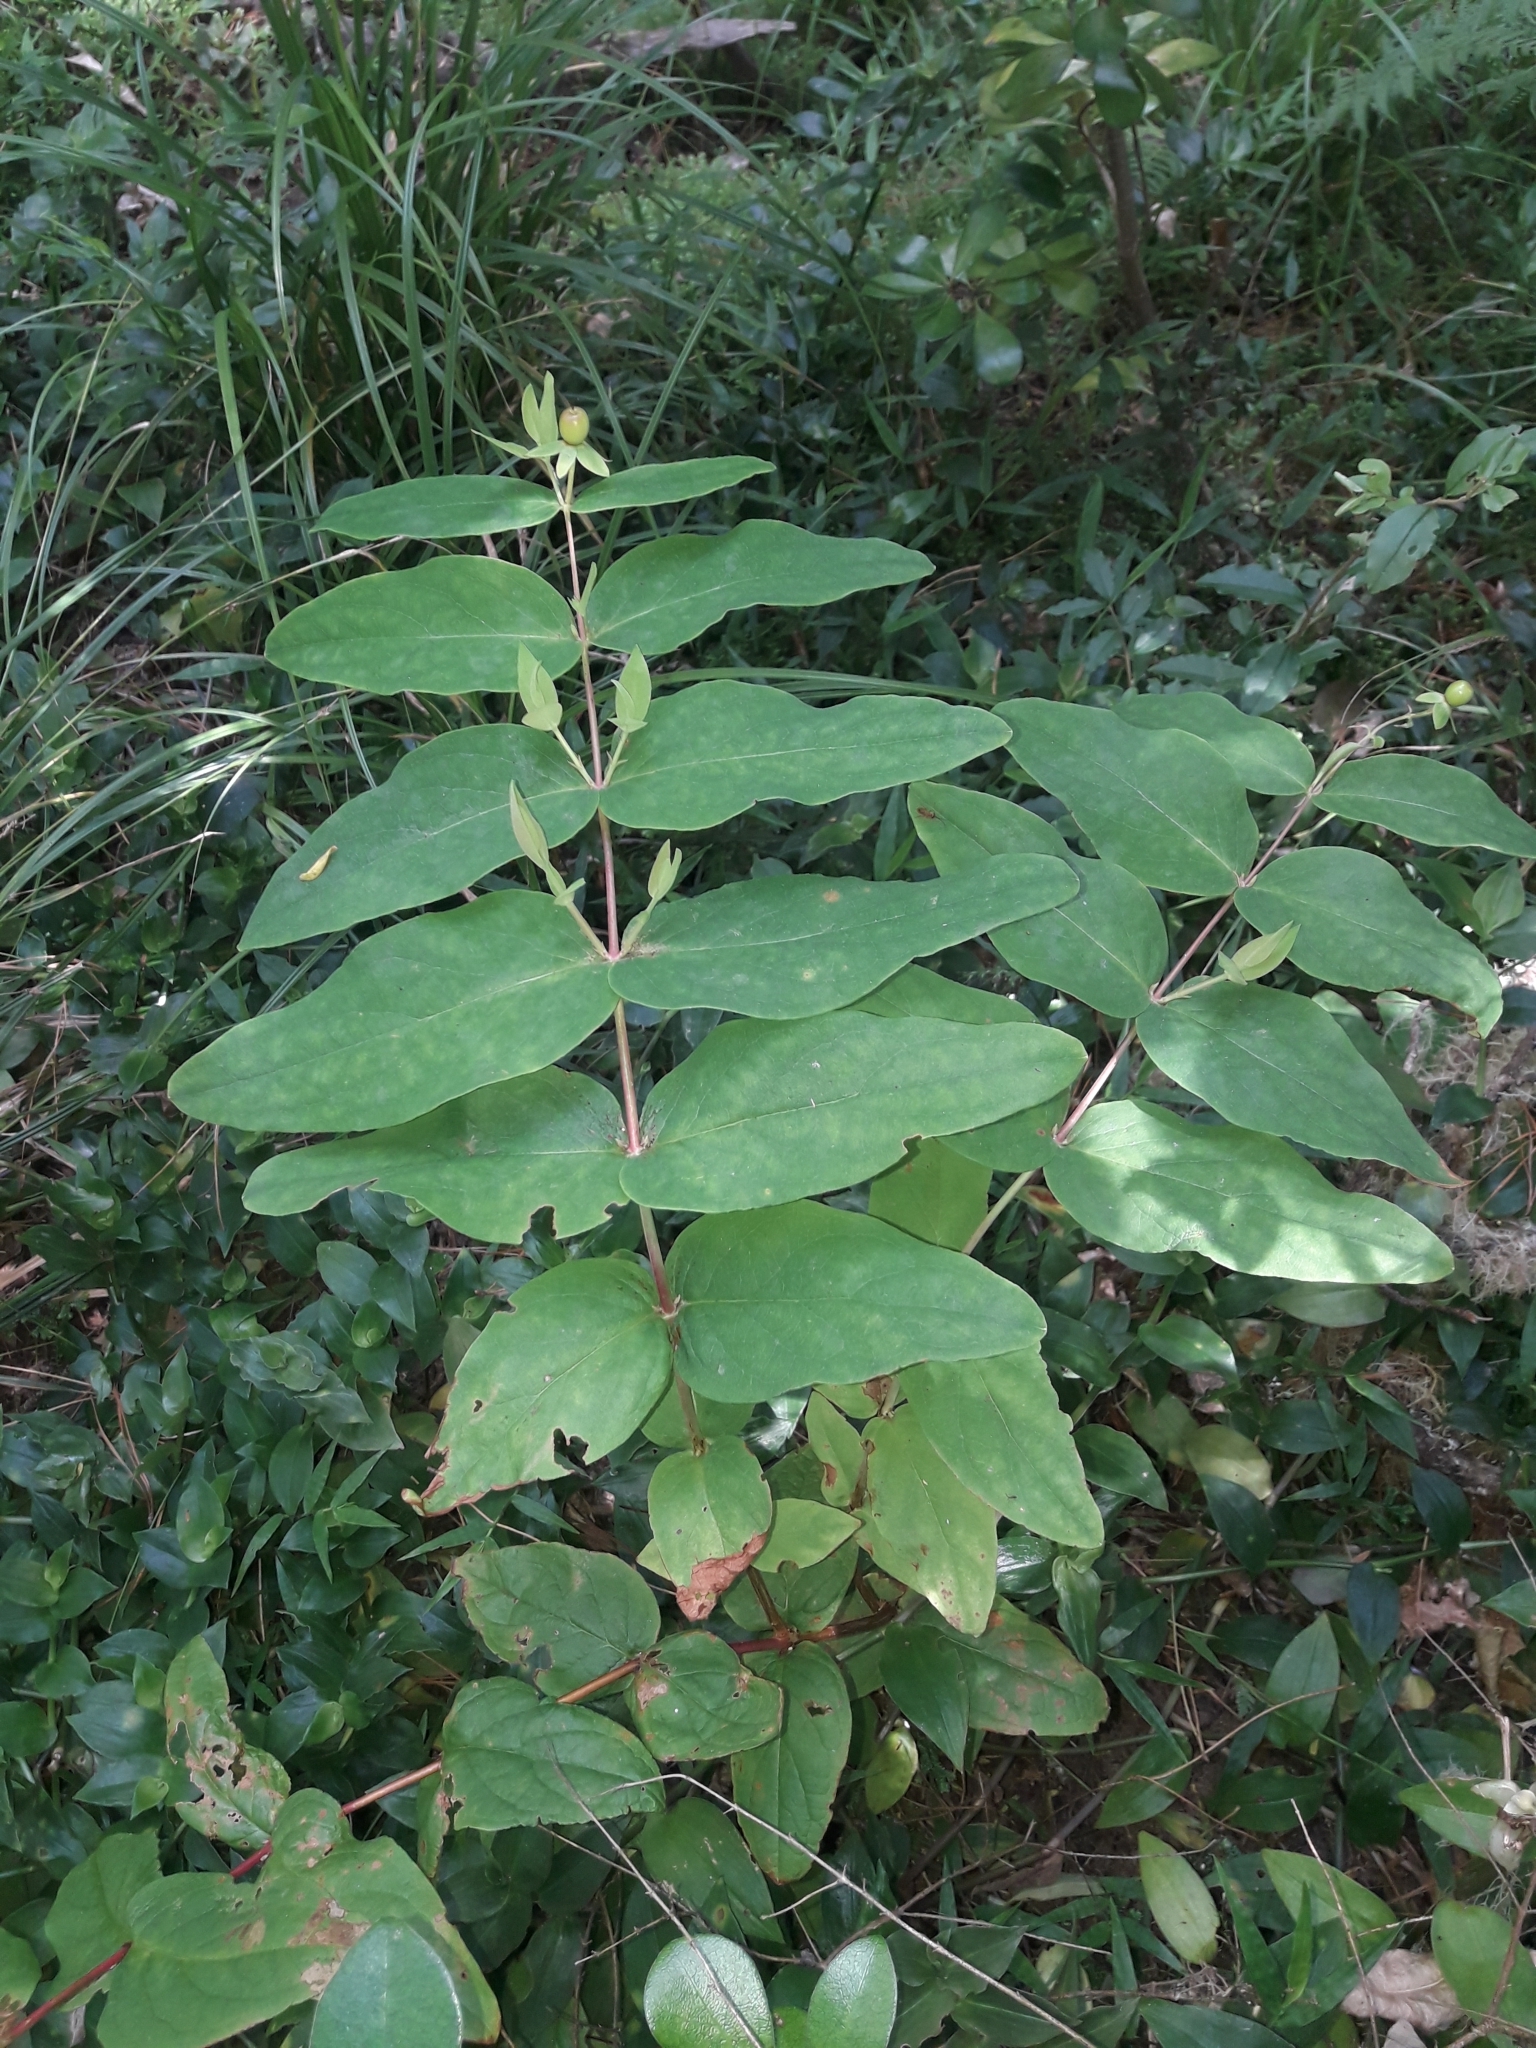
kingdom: Plantae
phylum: Tracheophyta
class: Magnoliopsida
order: Malpighiales
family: Hypericaceae
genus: Hypericum
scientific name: Hypericum androsaemum
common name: Sweet-amber
